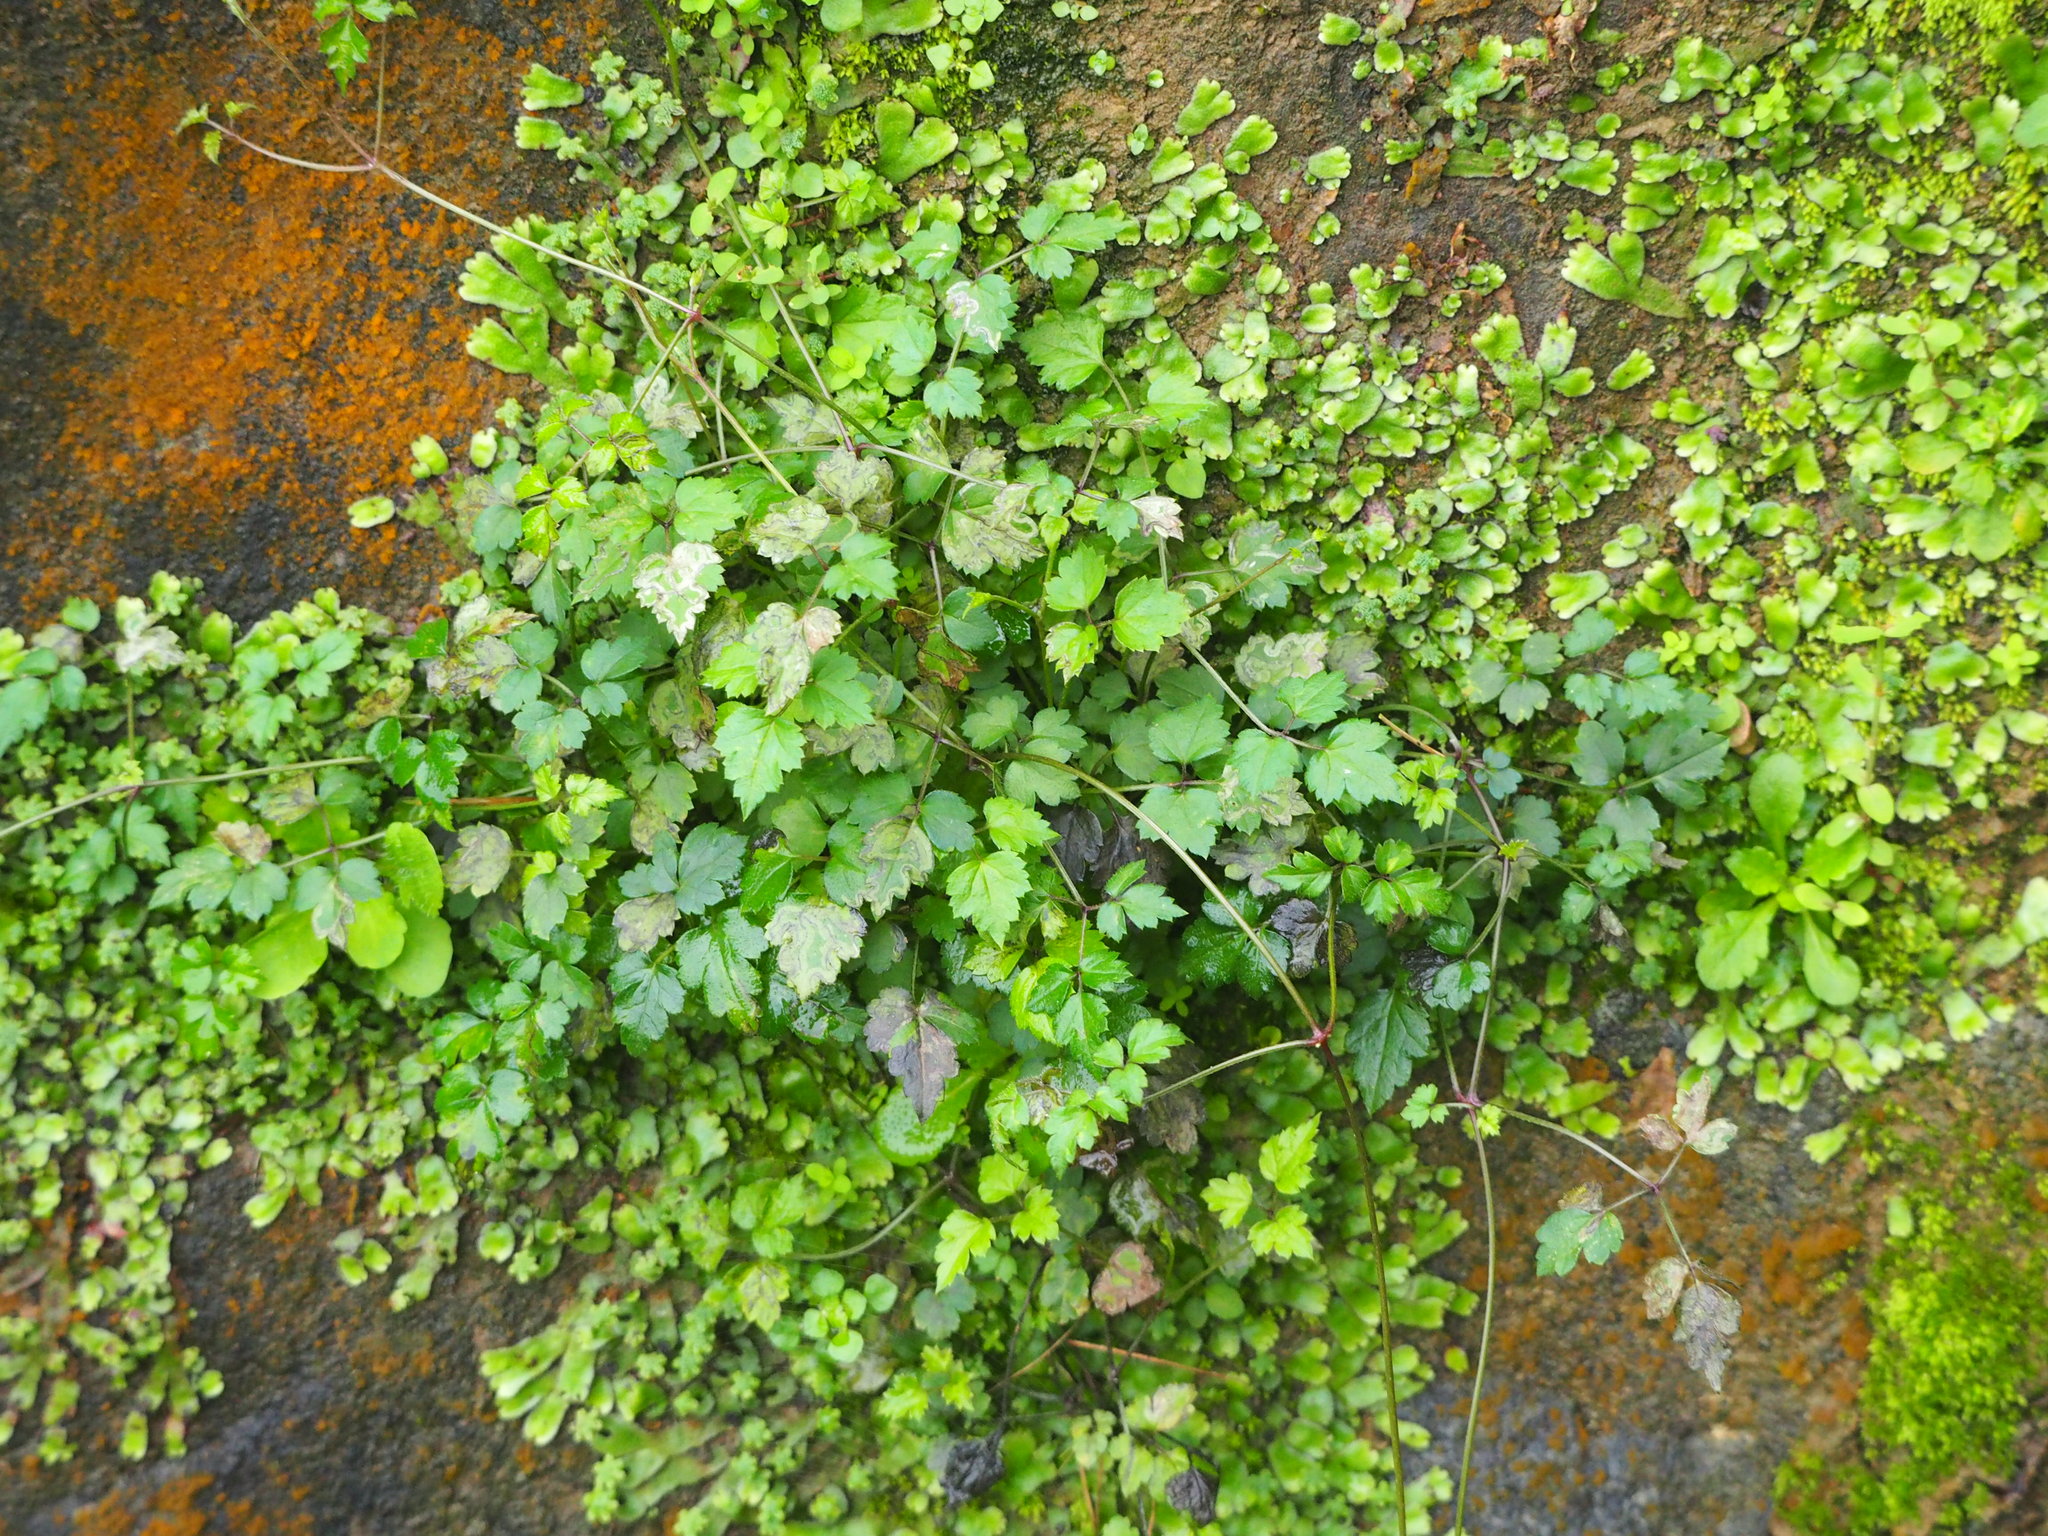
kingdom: Plantae
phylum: Tracheophyta
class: Magnoliopsida
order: Ranunculales
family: Ranunculaceae
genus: Clematis
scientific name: Clematis grata
